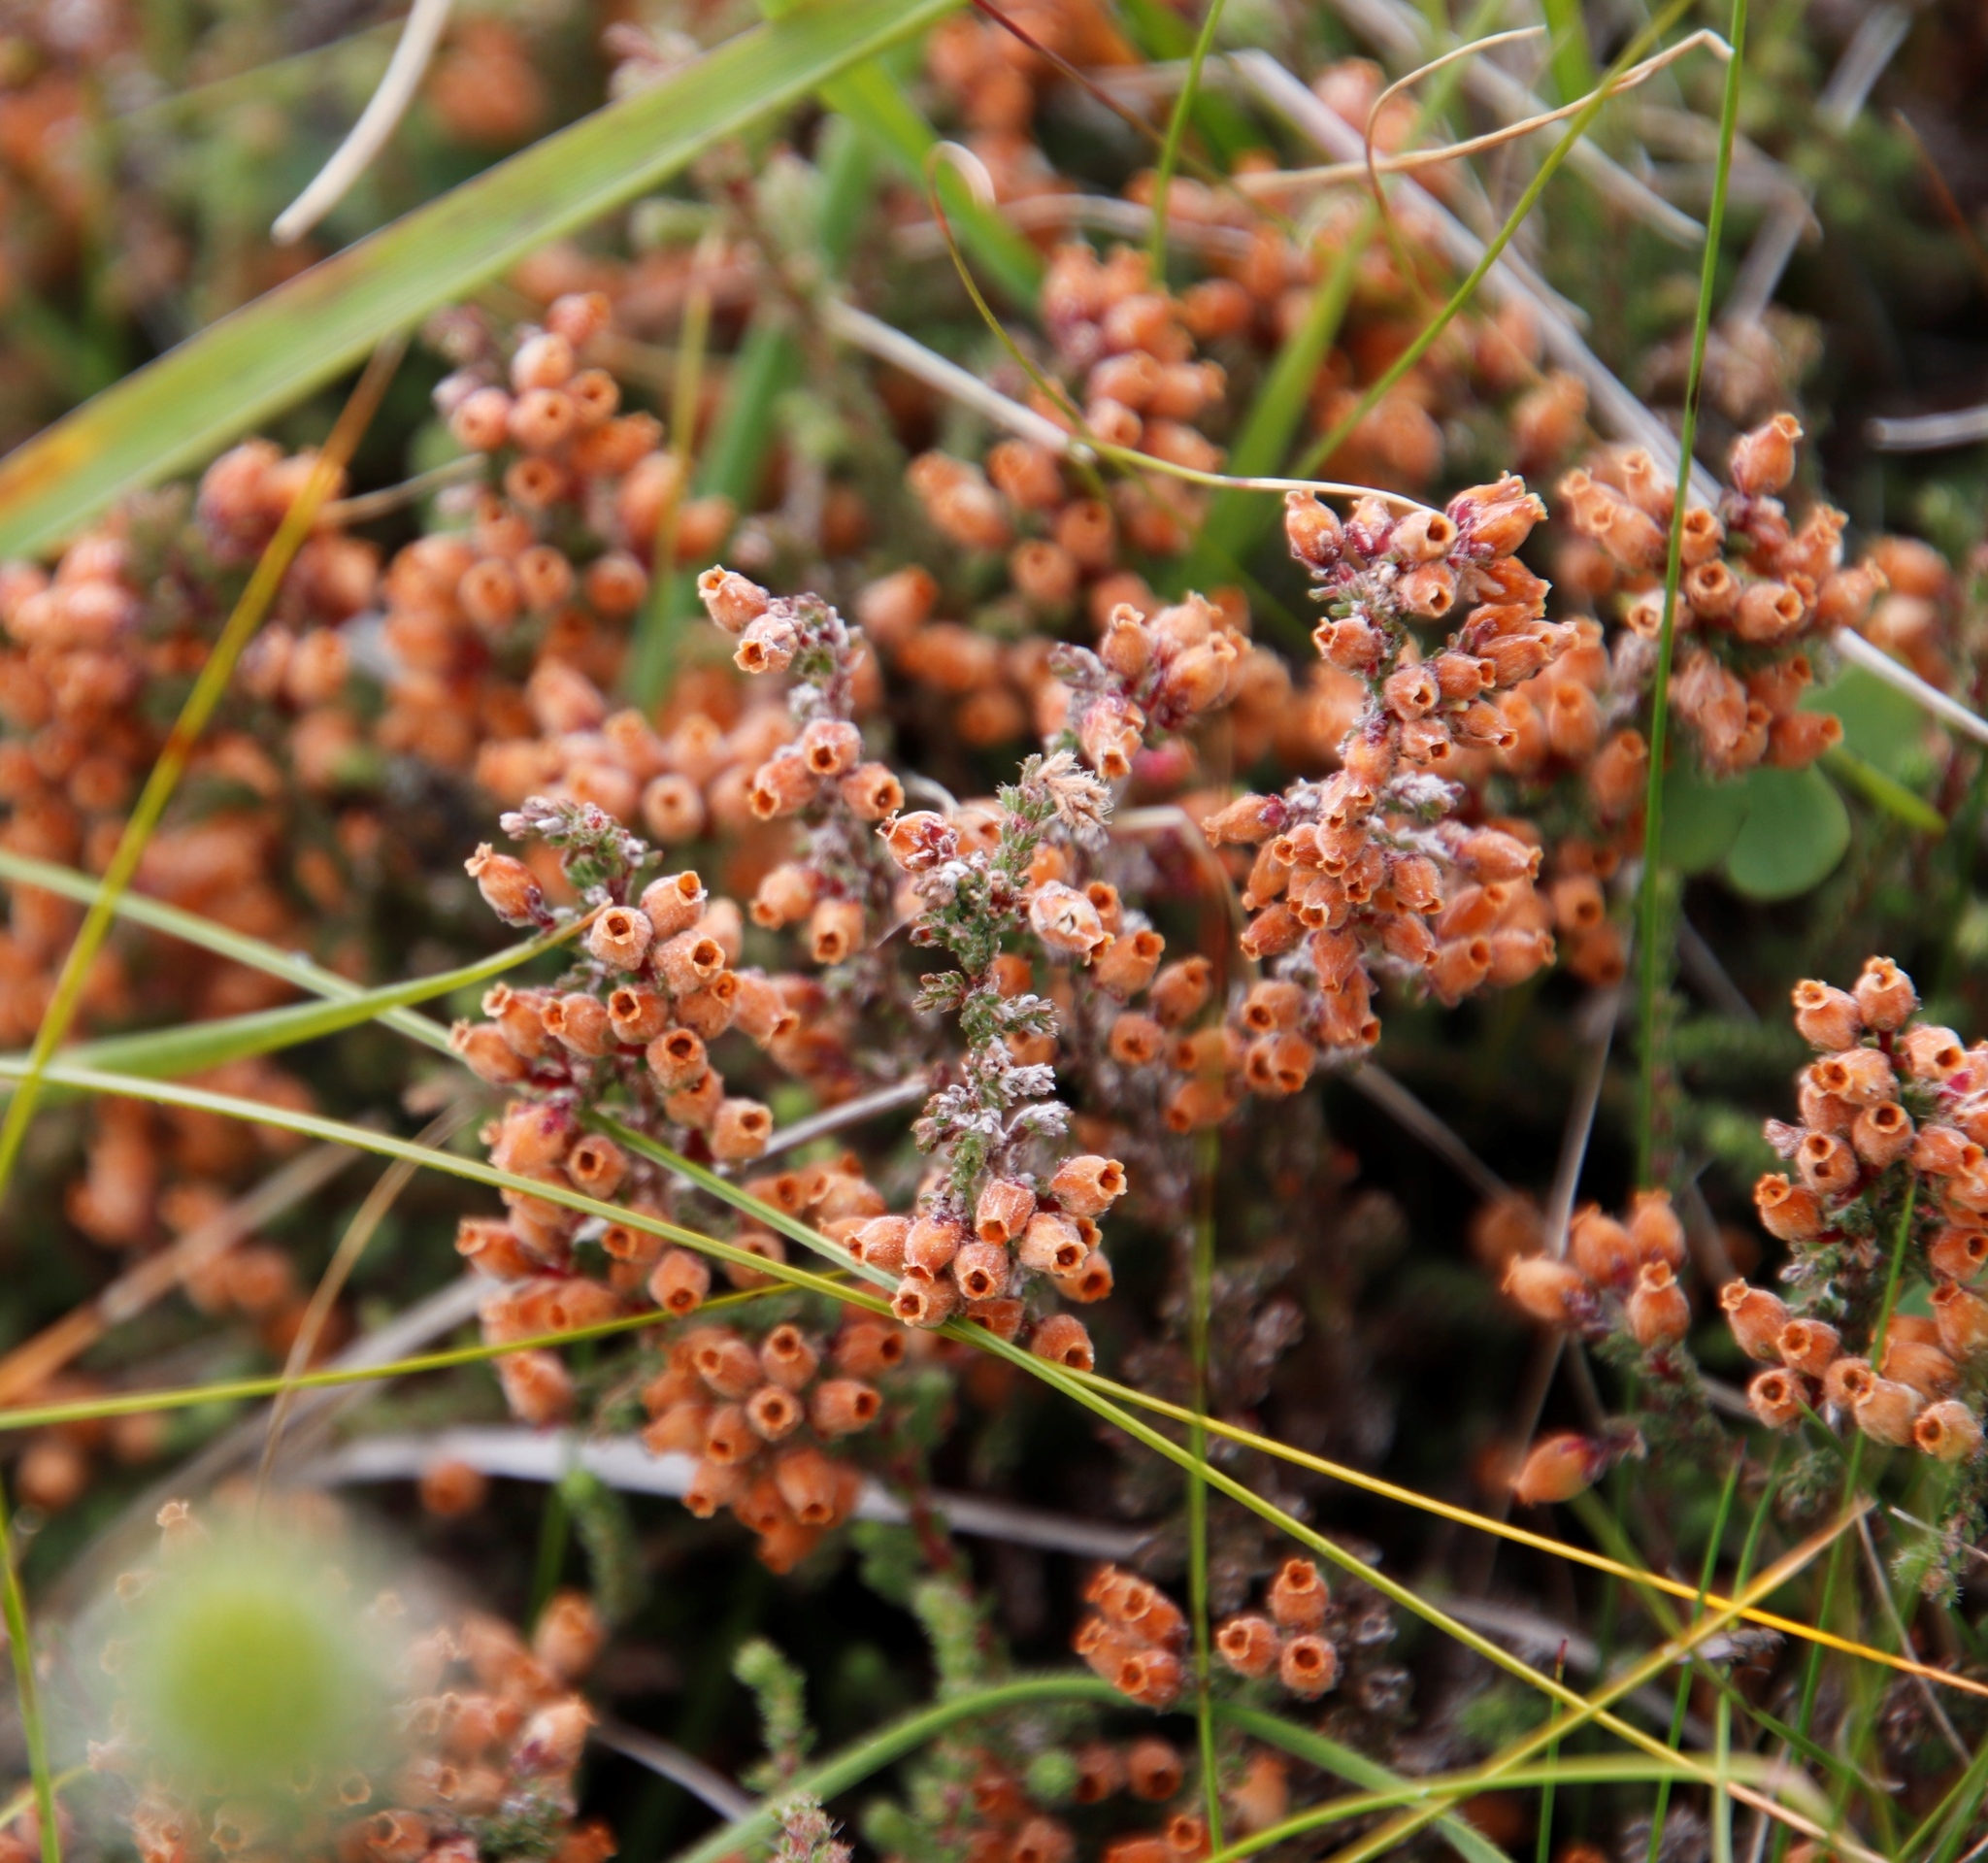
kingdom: Plantae
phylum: Tracheophyta
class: Magnoliopsida
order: Ericales
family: Ericaceae
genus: Erica
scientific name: Erica frigida
